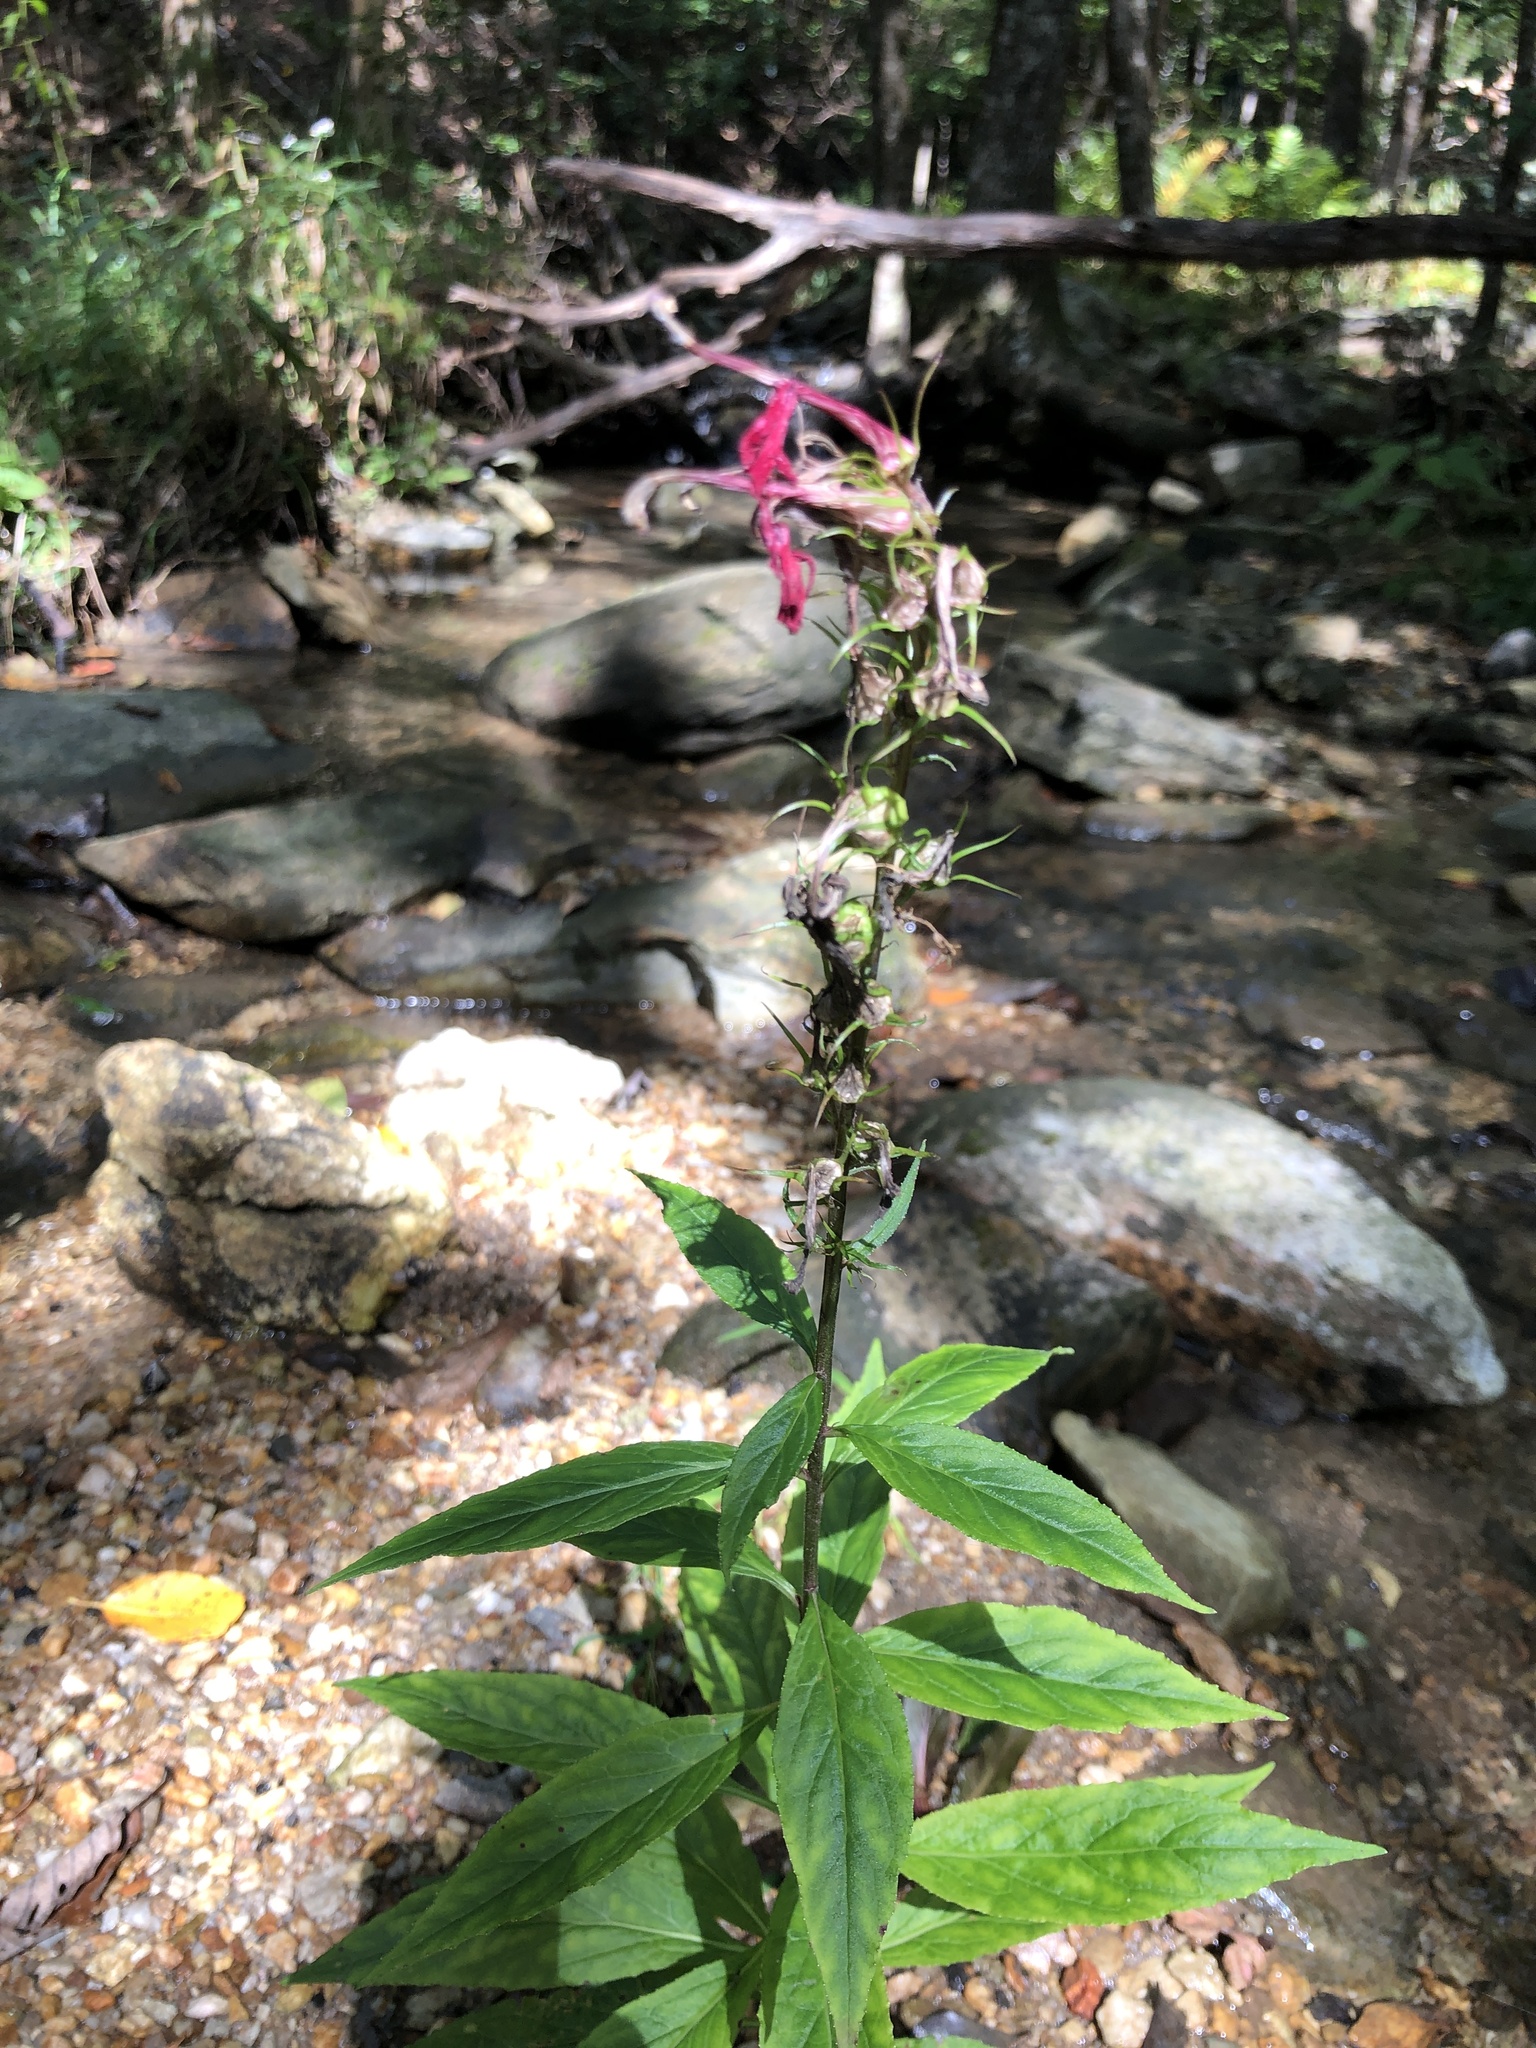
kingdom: Plantae
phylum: Tracheophyta
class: Magnoliopsida
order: Asterales
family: Campanulaceae
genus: Lobelia
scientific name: Lobelia cardinalis
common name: Cardinal flower
